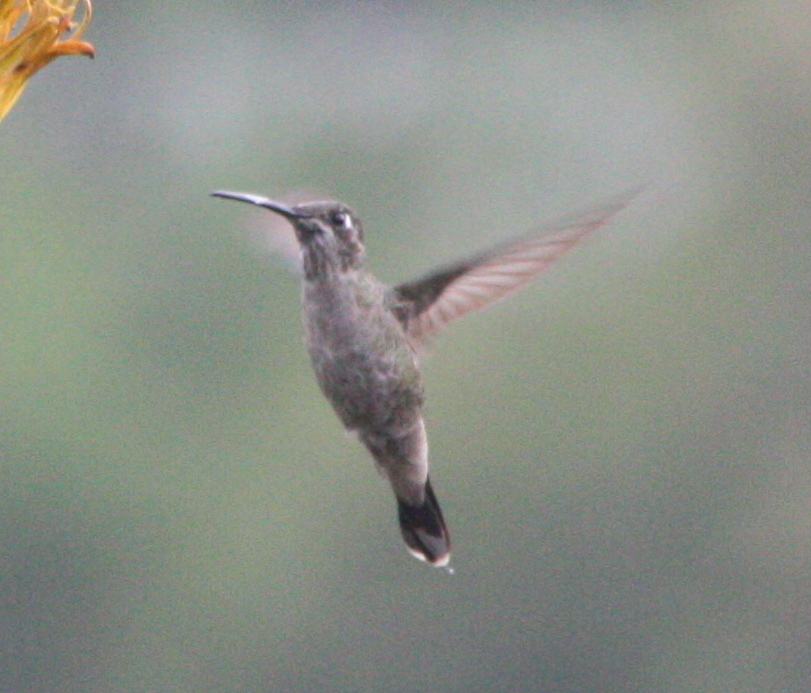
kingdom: Animalia
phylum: Chordata
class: Aves
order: Apodiformes
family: Trochilidae
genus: Eugenes
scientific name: Eugenes fulgens
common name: Magnificent hummingbird
